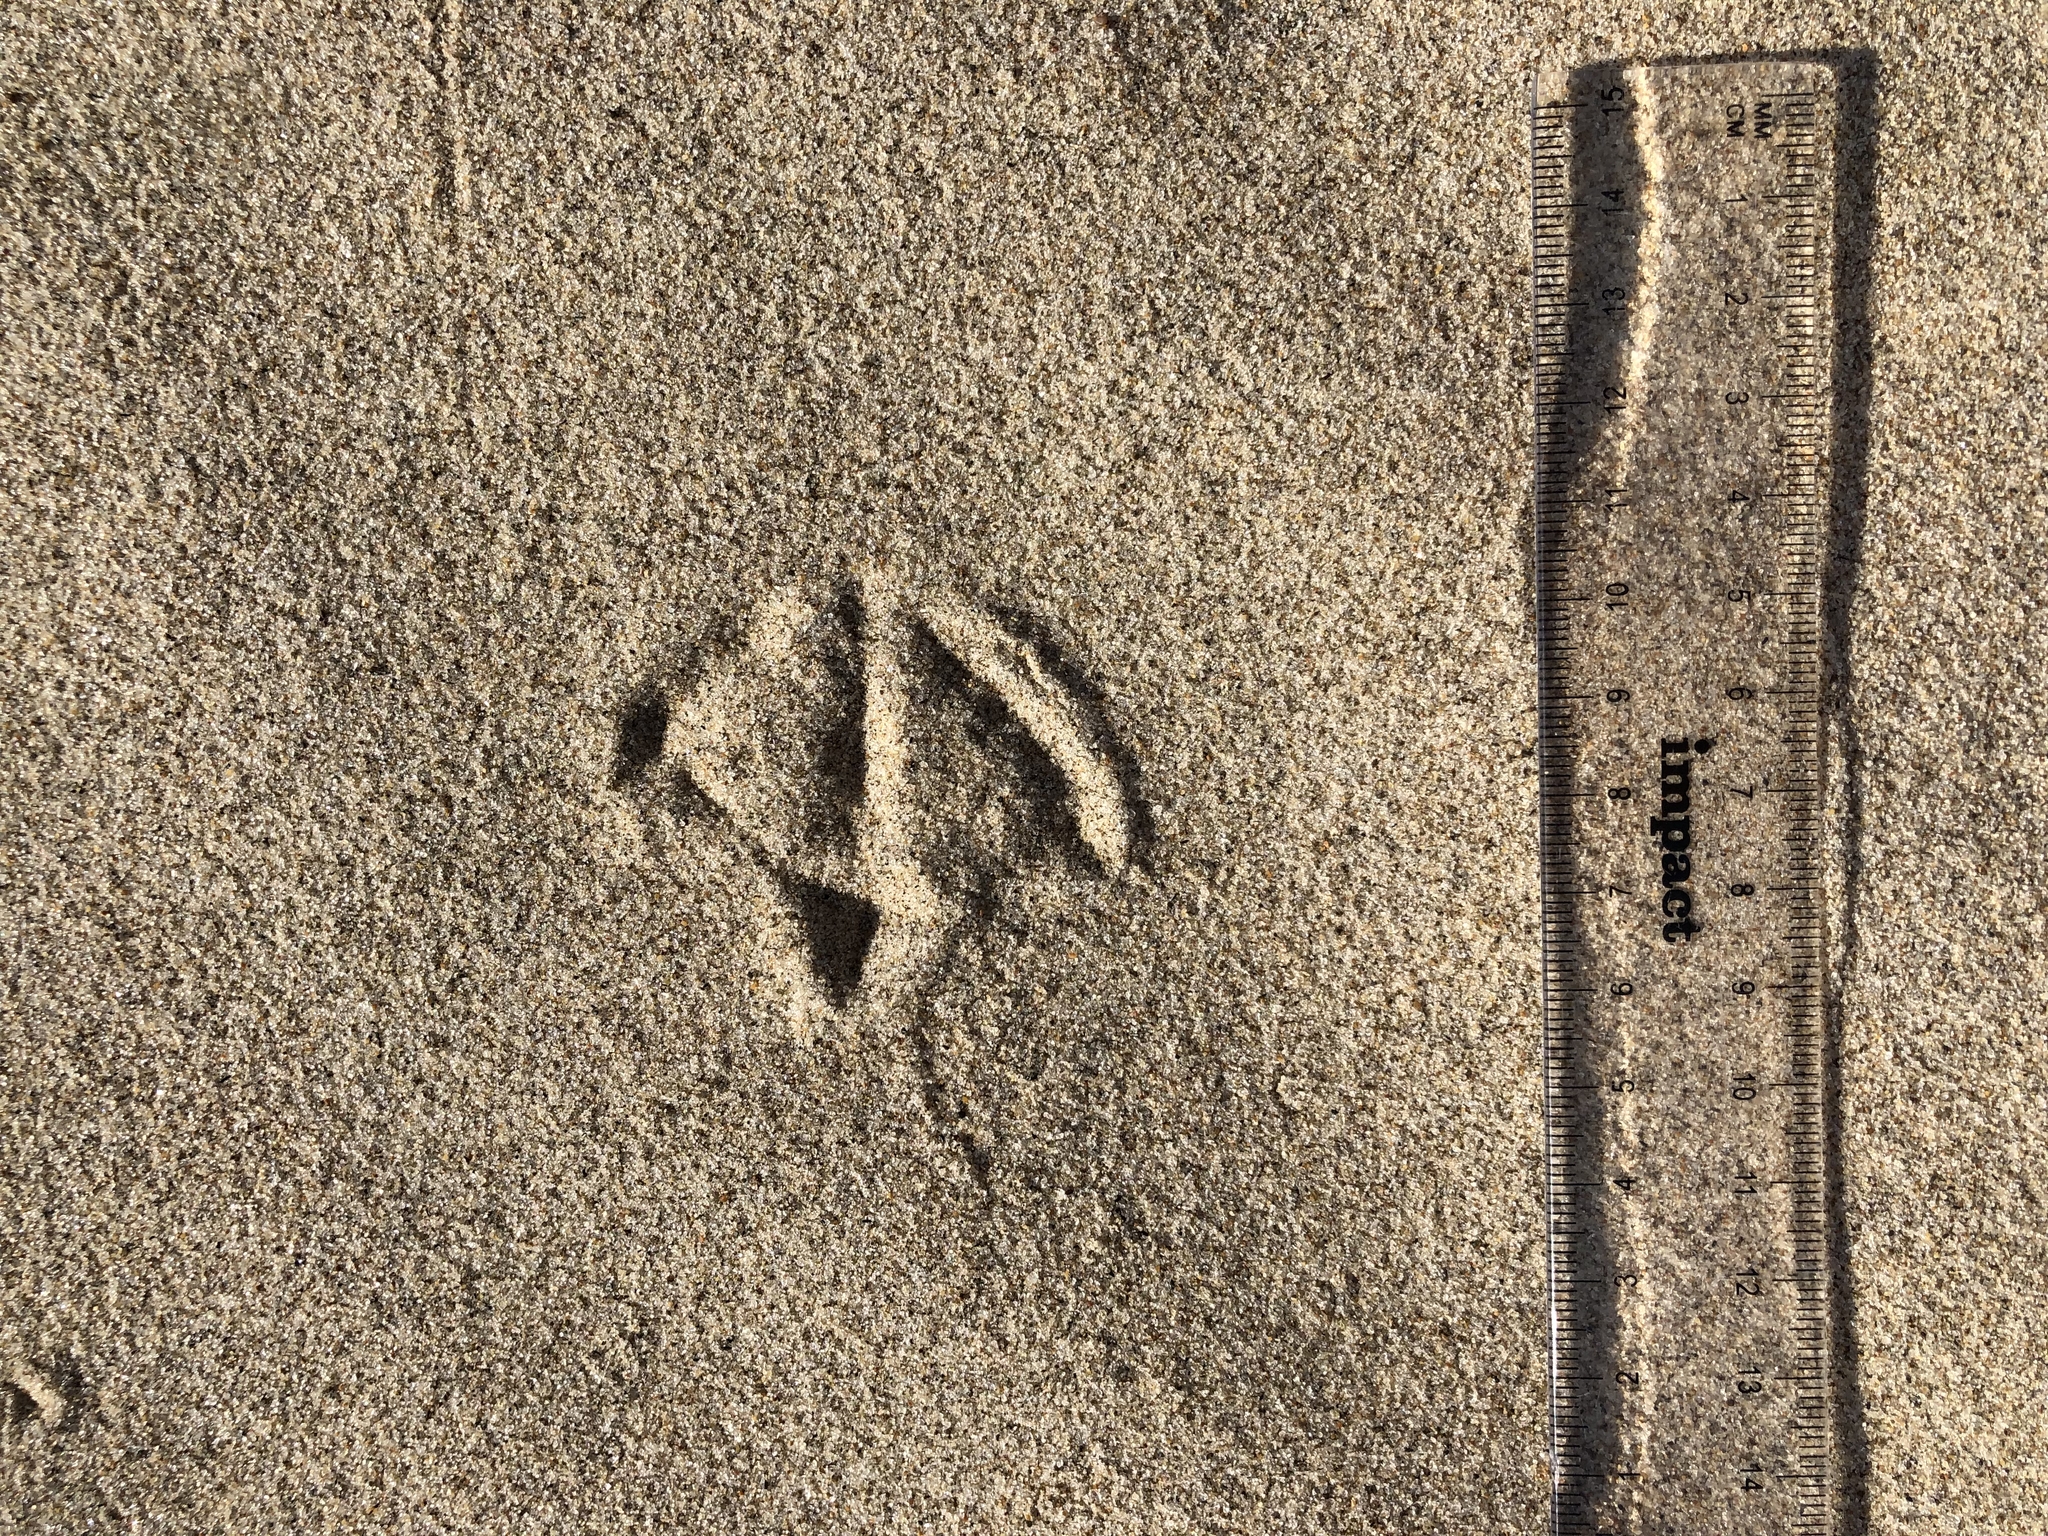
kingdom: Animalia
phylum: Chordata
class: Aves
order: Charadriiformes
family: Laridae
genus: Chroicocephalus
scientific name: Chroicocephalus novaehollandiae
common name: Silver gull
